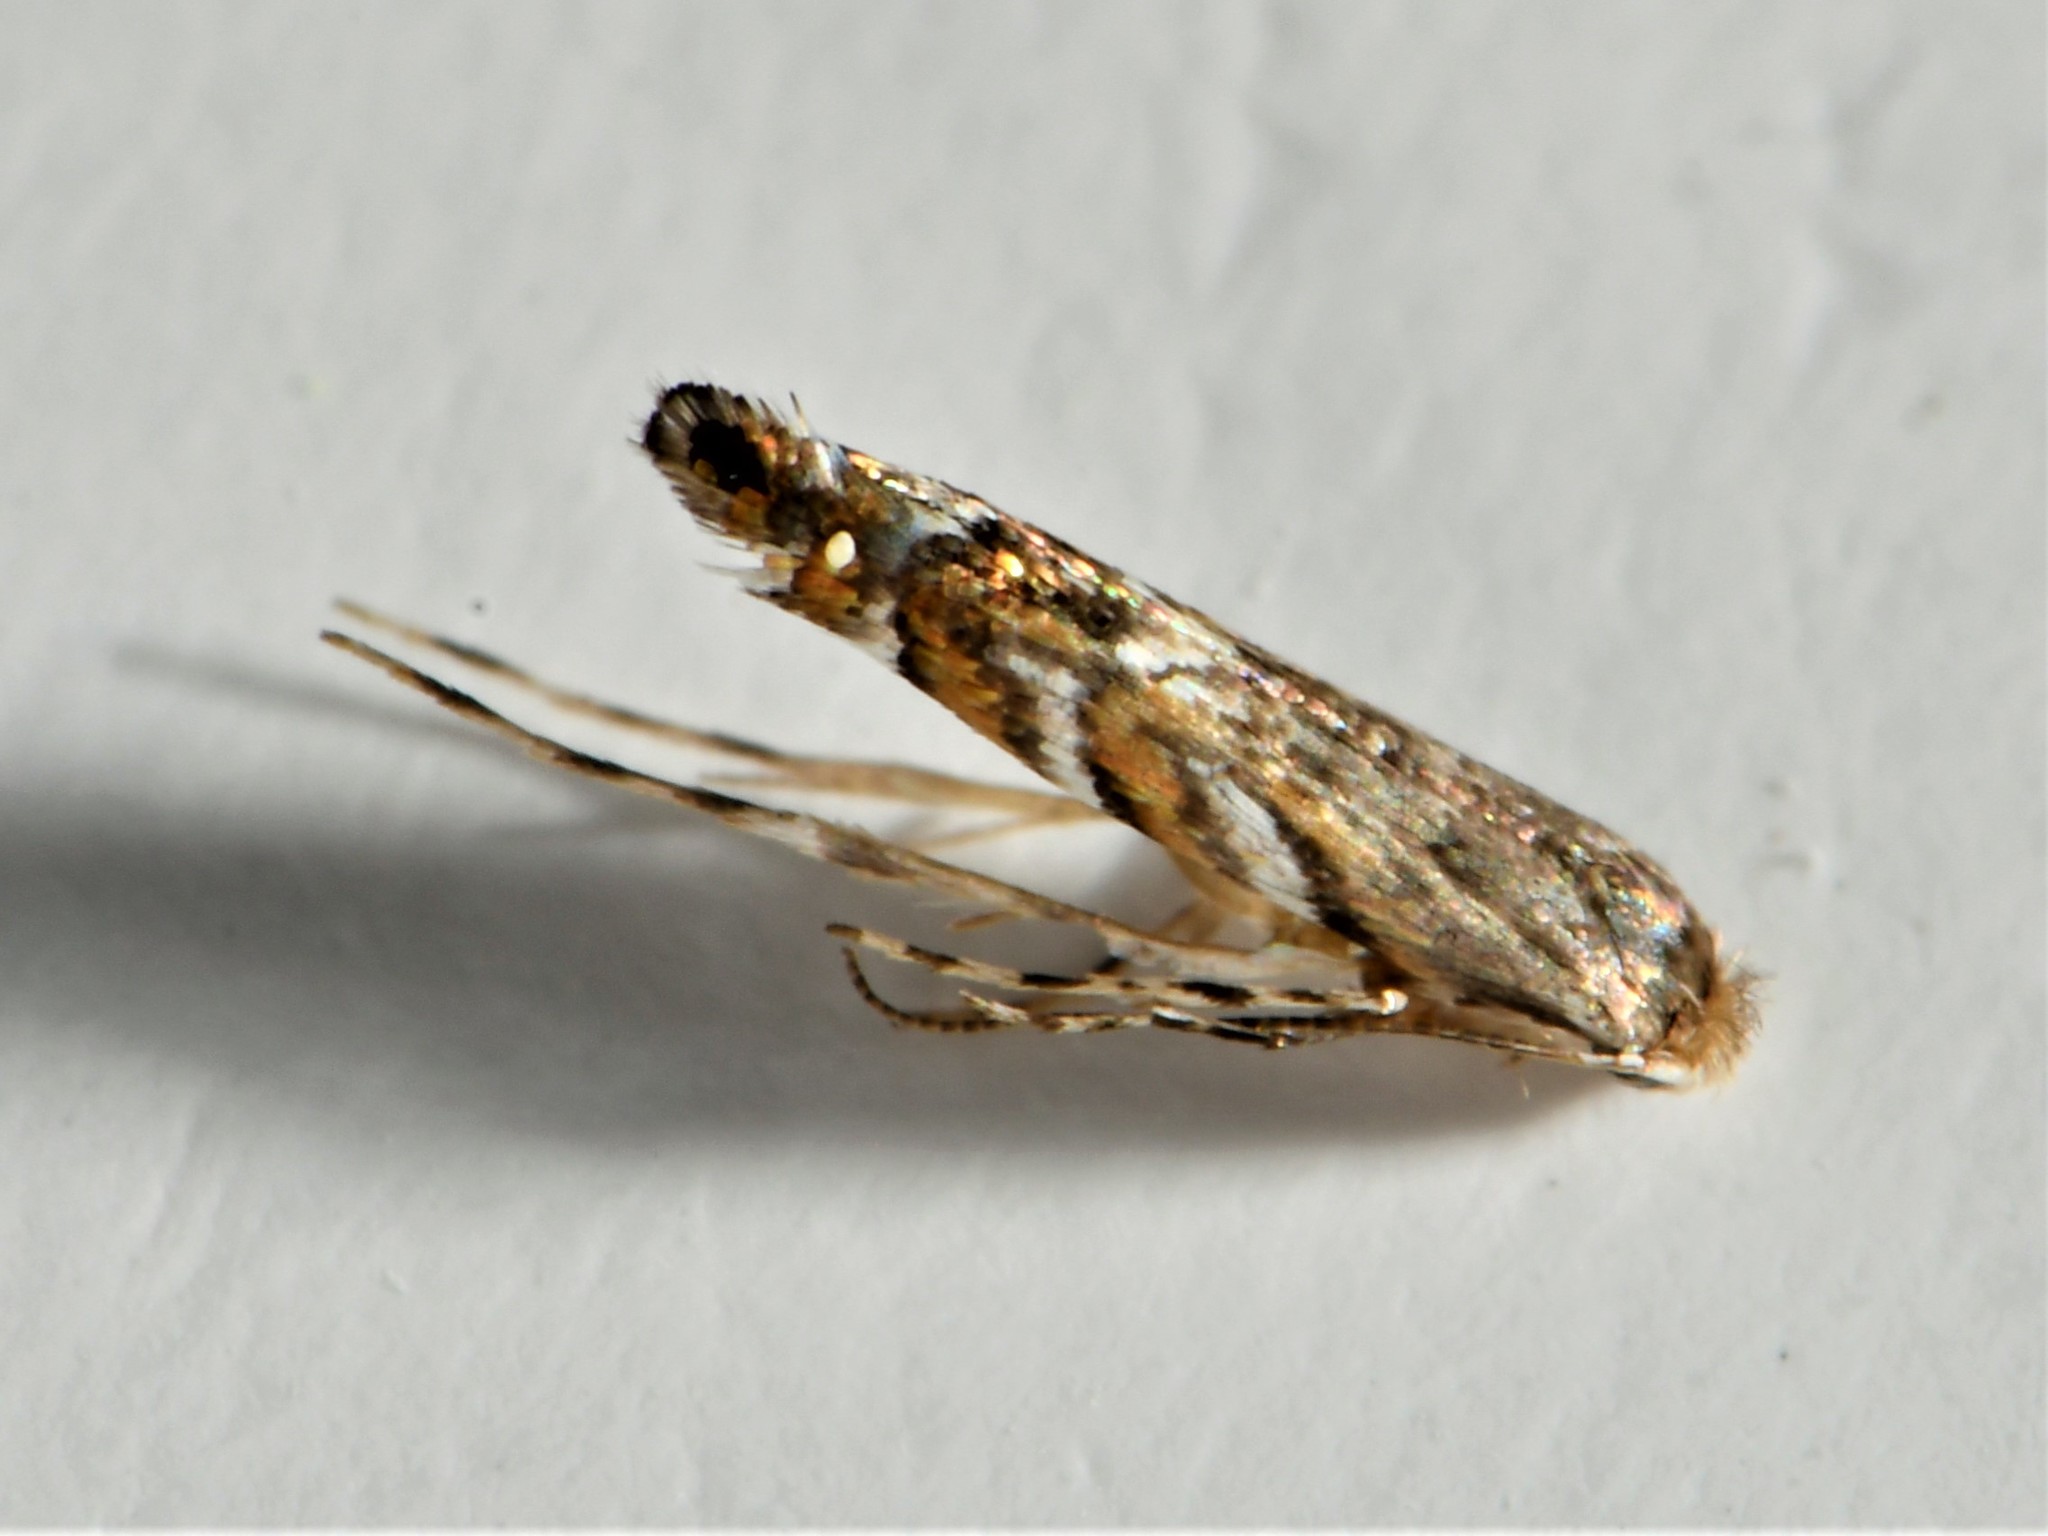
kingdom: Animalia
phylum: Arthropoda
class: Insecta
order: Lepidoptera
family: Gracillariidae
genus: Macrosaccus
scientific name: Macrosaccus robiniella
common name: Leaf blotch miner moth
